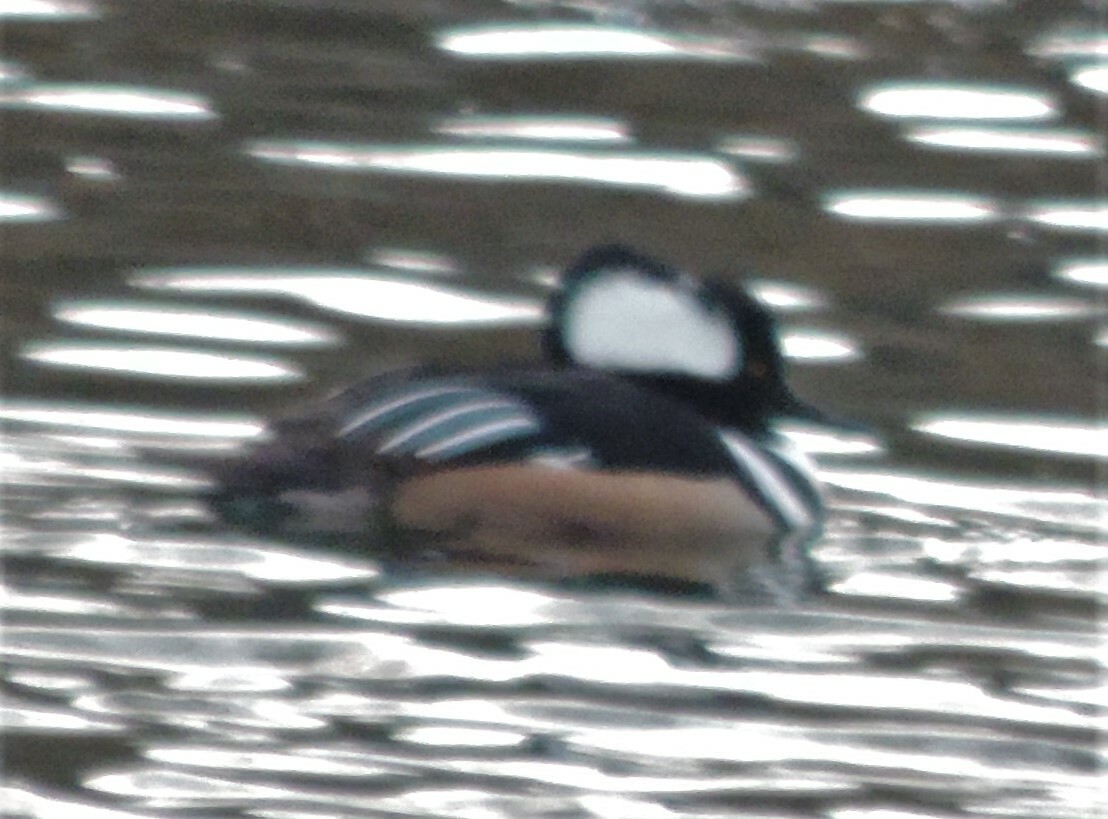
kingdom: Animalia
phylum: Chordata
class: Aves
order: Anseriformes
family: Anatidae
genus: Lophodytes
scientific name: Lophodytes cucullatus
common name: Hooded merganser
